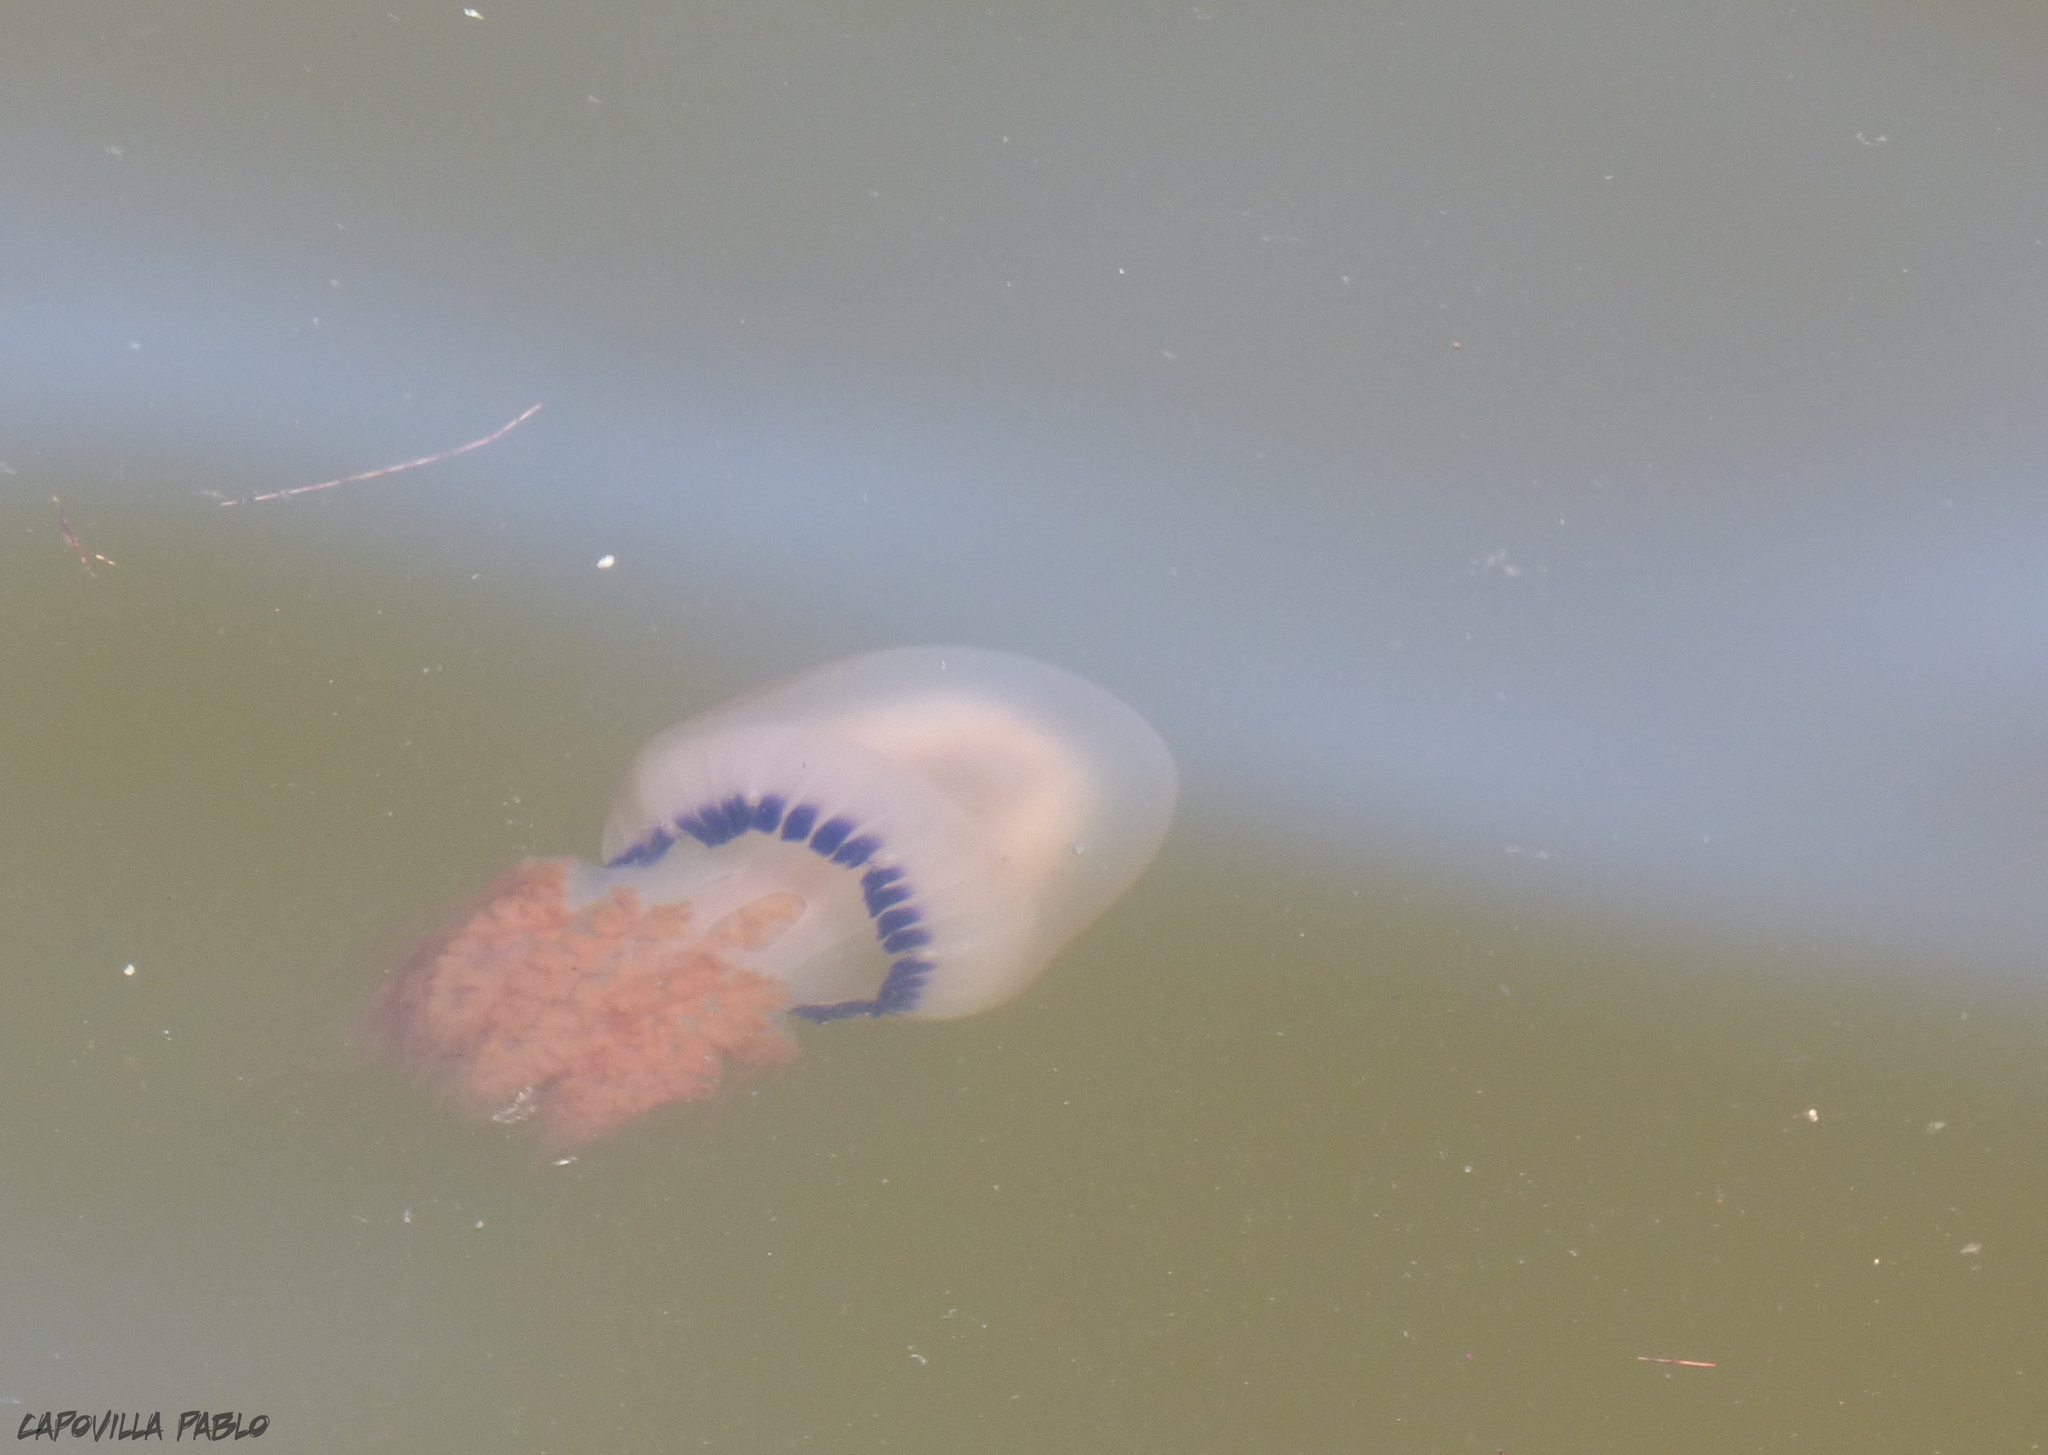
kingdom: Animalia
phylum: Cnidaria
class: Scyphozoa
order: Rhizostomeae
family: Lychnorhizidae
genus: Lychnorhiza
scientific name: Lychnorhiza lucerna
